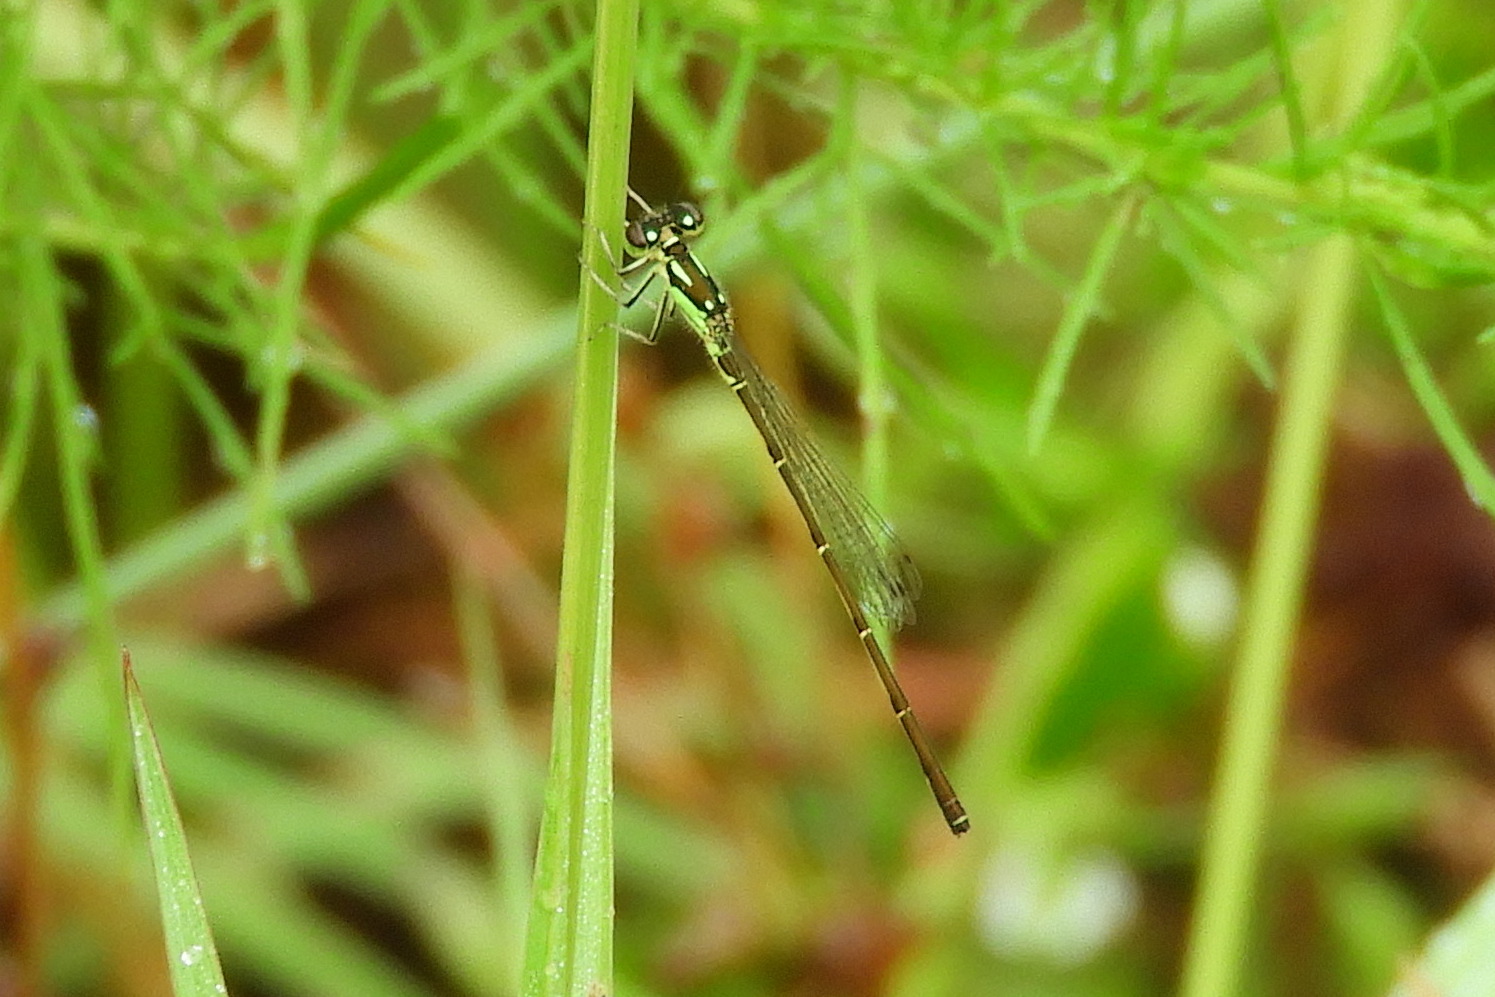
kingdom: Animalia
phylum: Arthropoda
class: Insecta
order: Odonata
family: Coenagrionidae
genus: Ischnura
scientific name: Ischnura posita
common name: Fragile forktail
